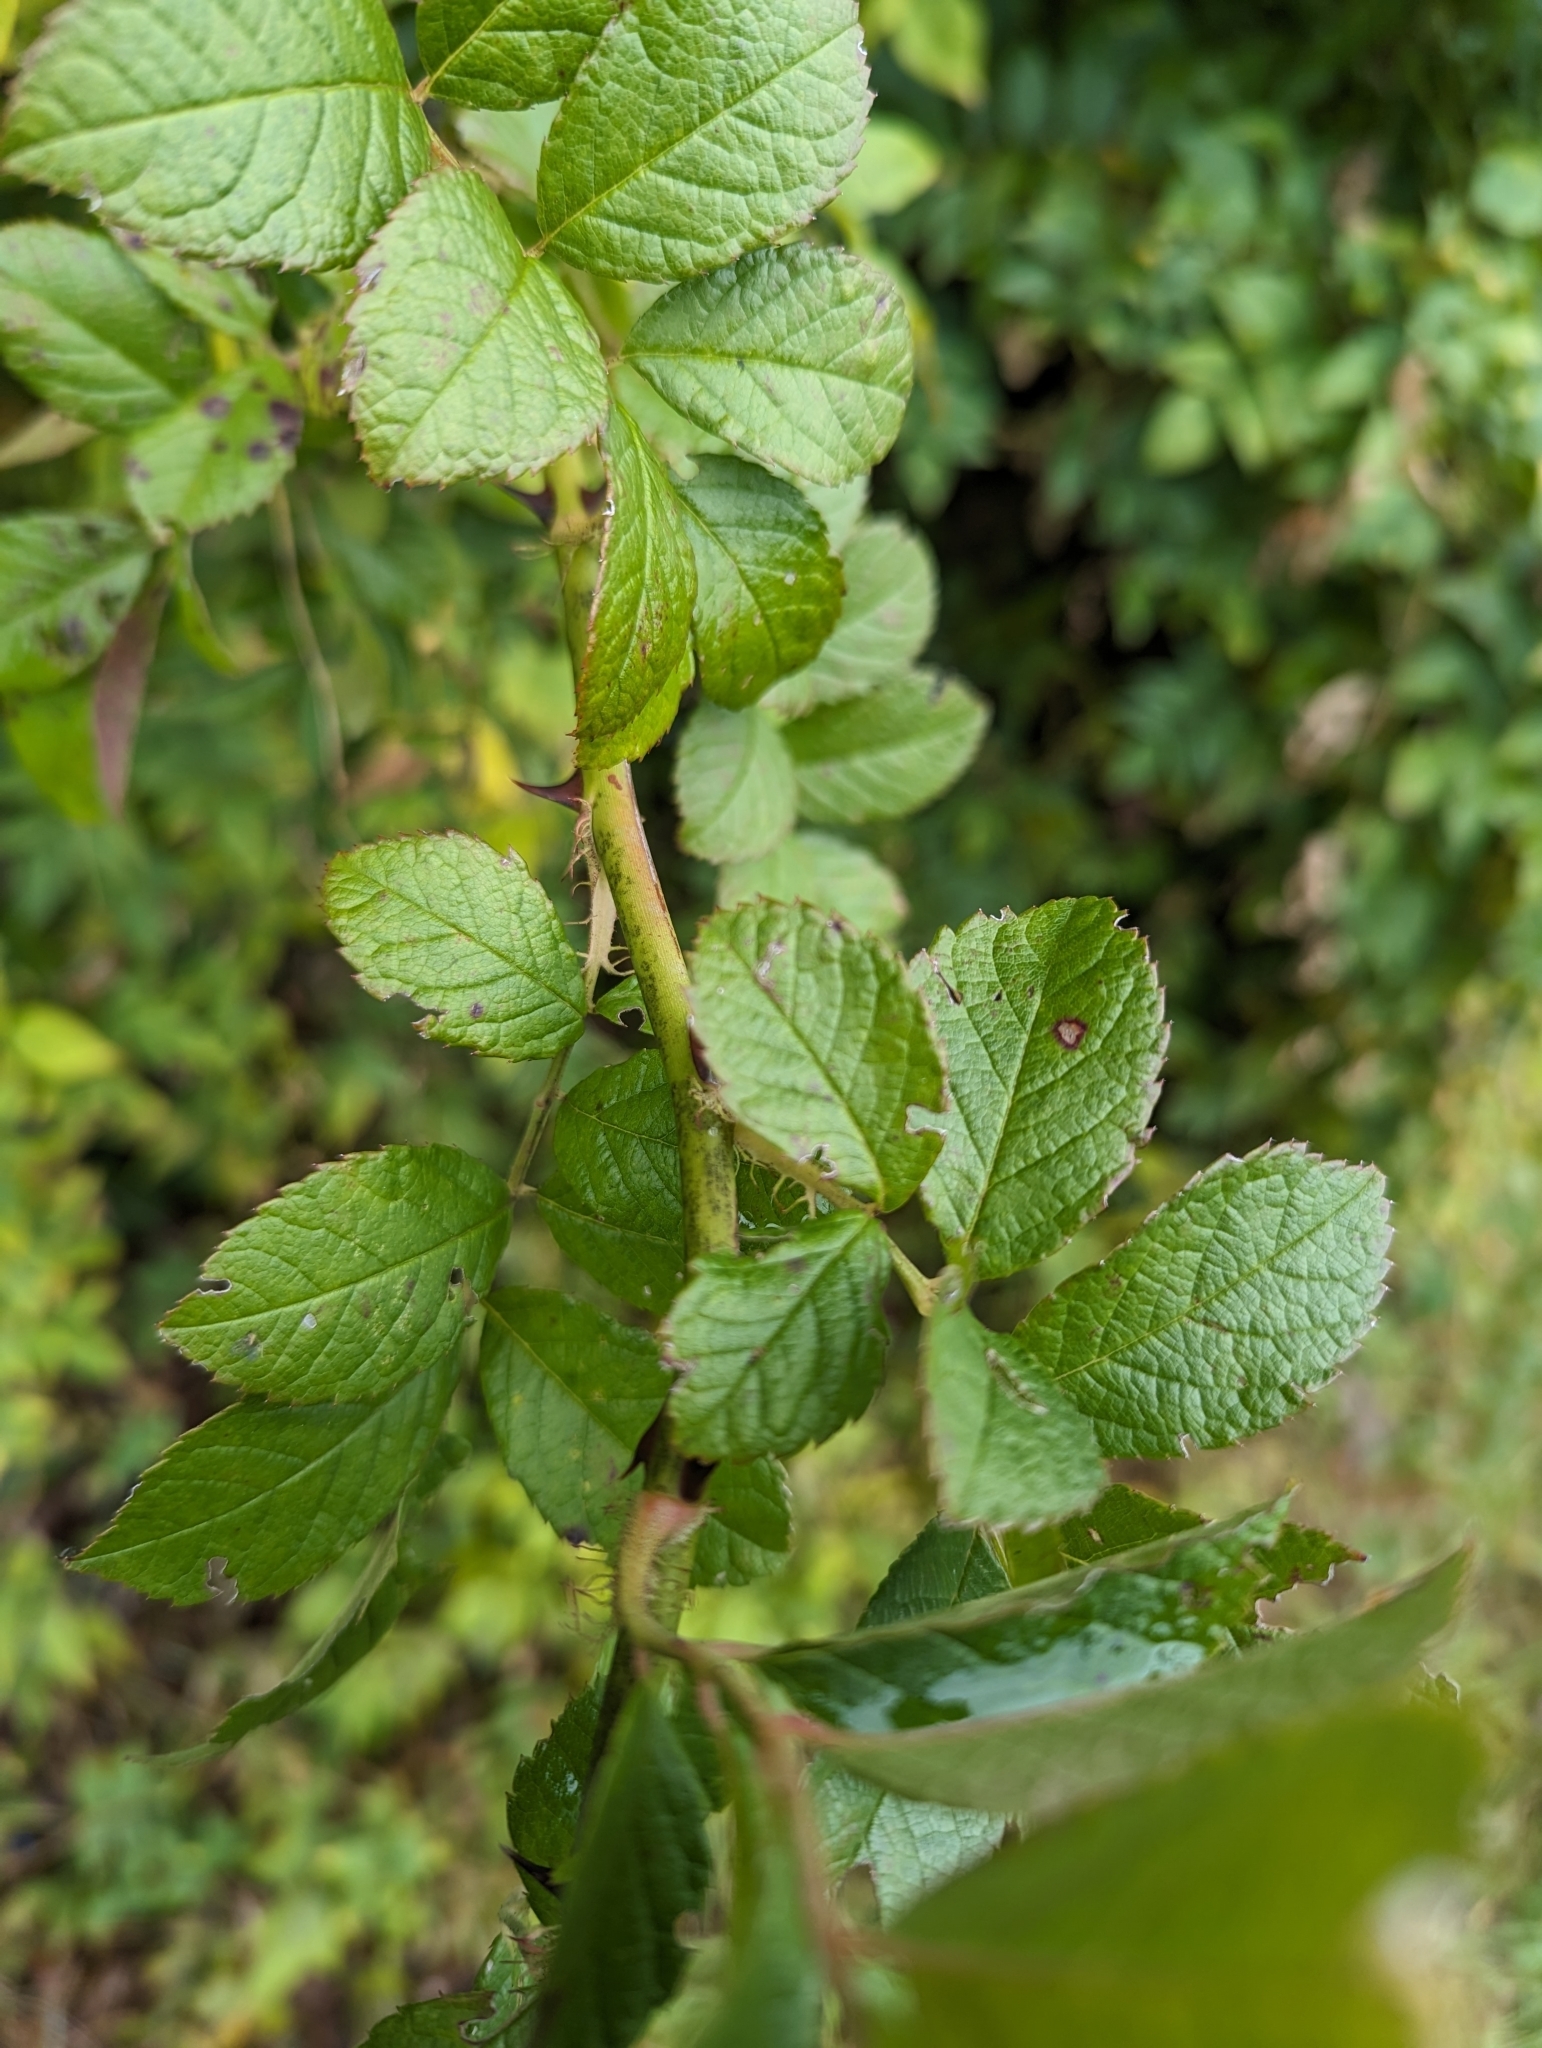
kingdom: Plantae
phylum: Tracheophyta
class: Magnoliopsida
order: Rosales
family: Rosaceae
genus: Rosa
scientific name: Rosa multiflora
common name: Multiflora rose
